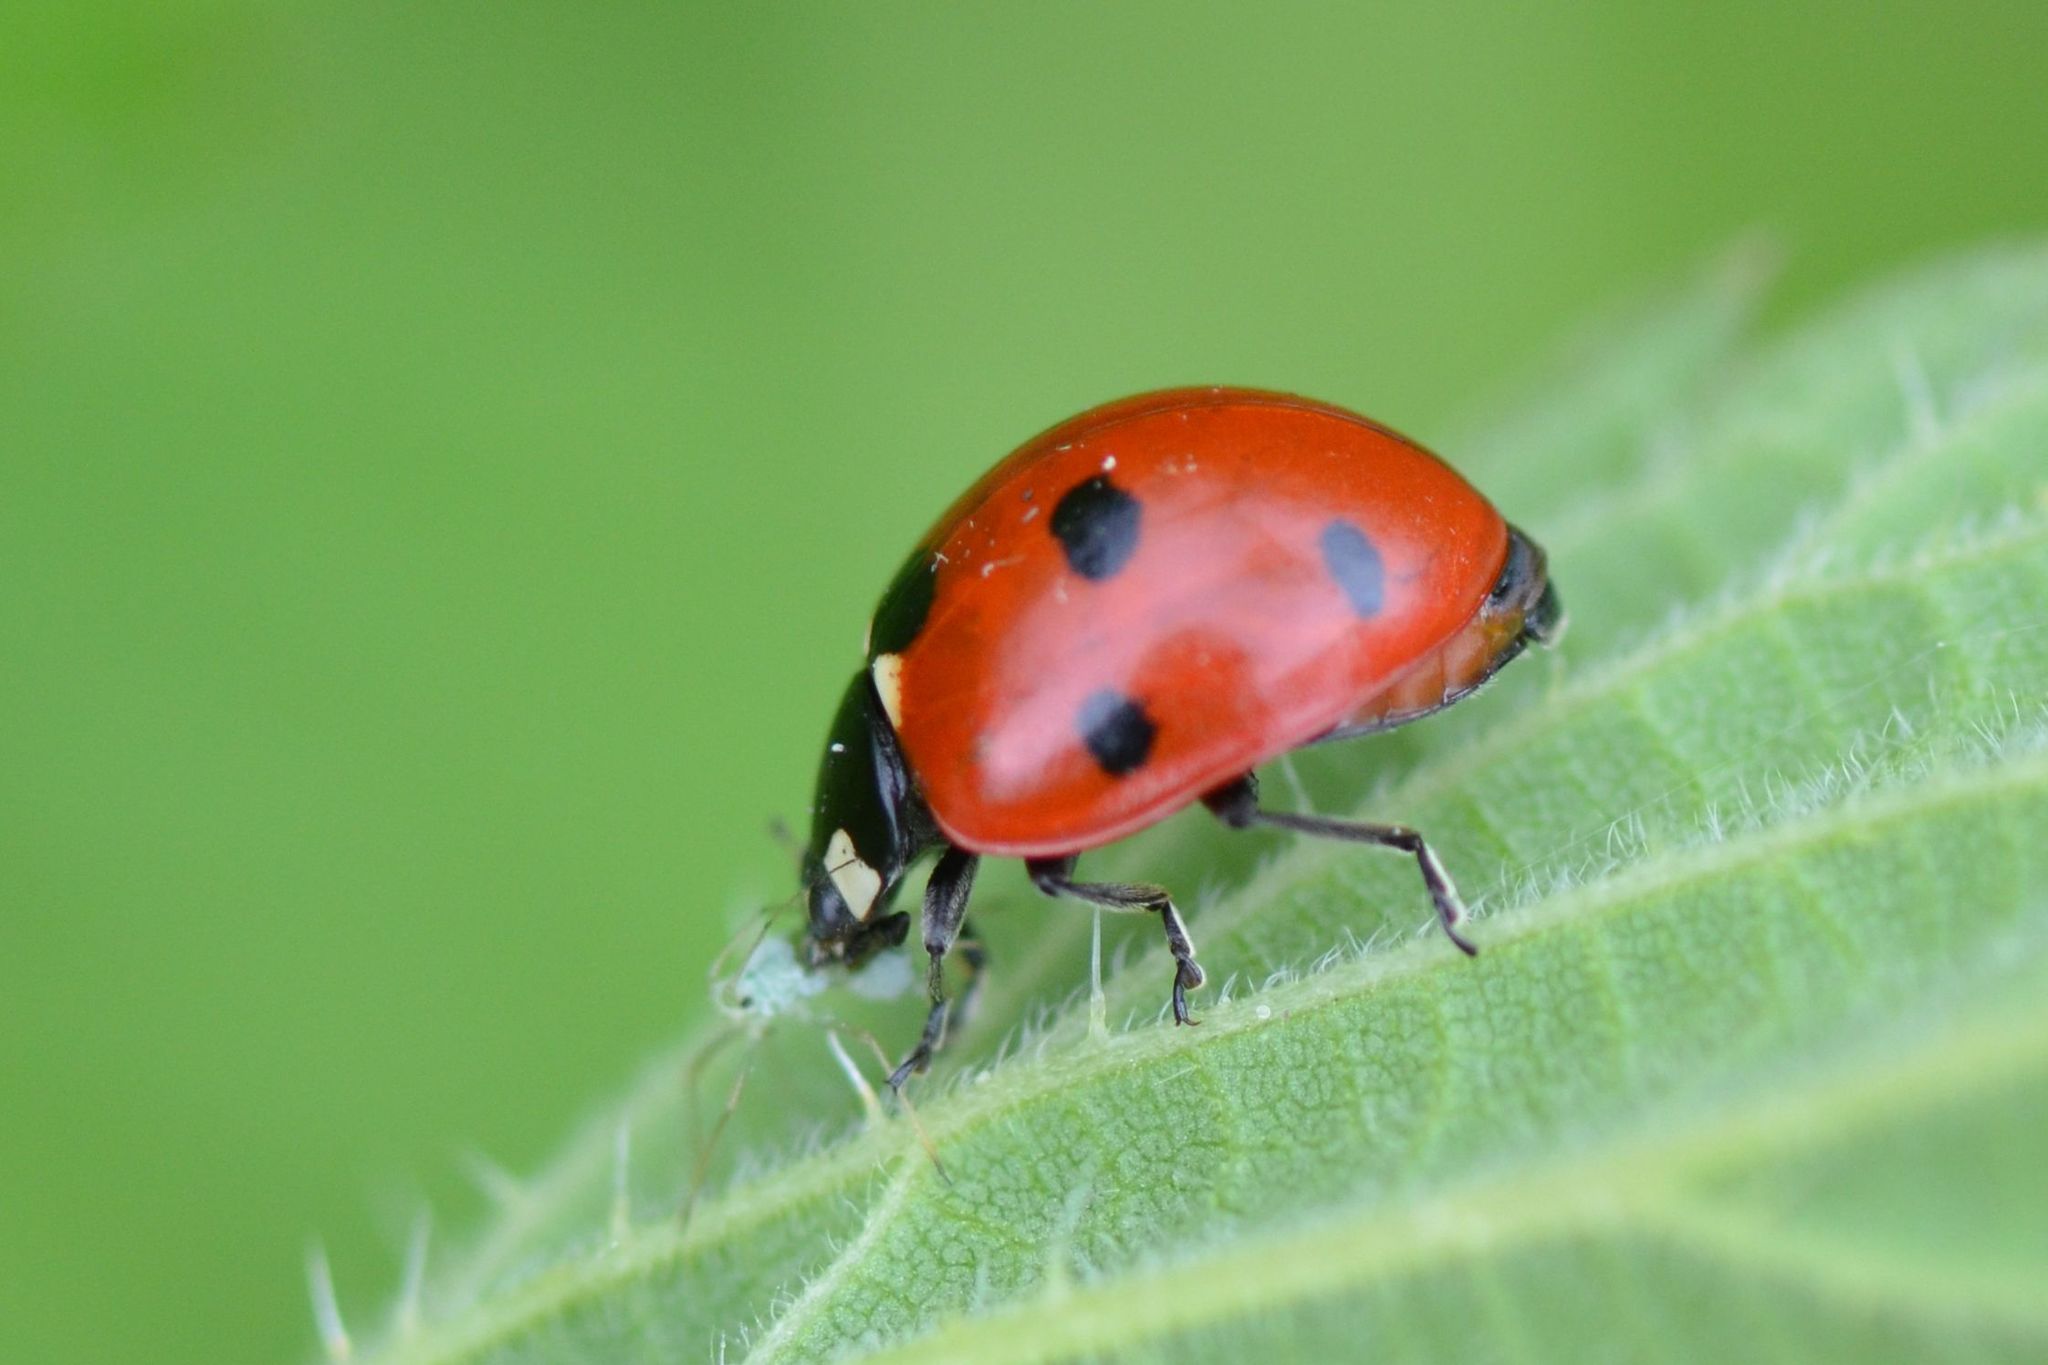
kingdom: Animalia
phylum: Arthropoda
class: Insecta
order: Coleoptera
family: Coccinellidae
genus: Coccinella
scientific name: Coccinella septempunctata
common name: Sevenspotted lady beetle
